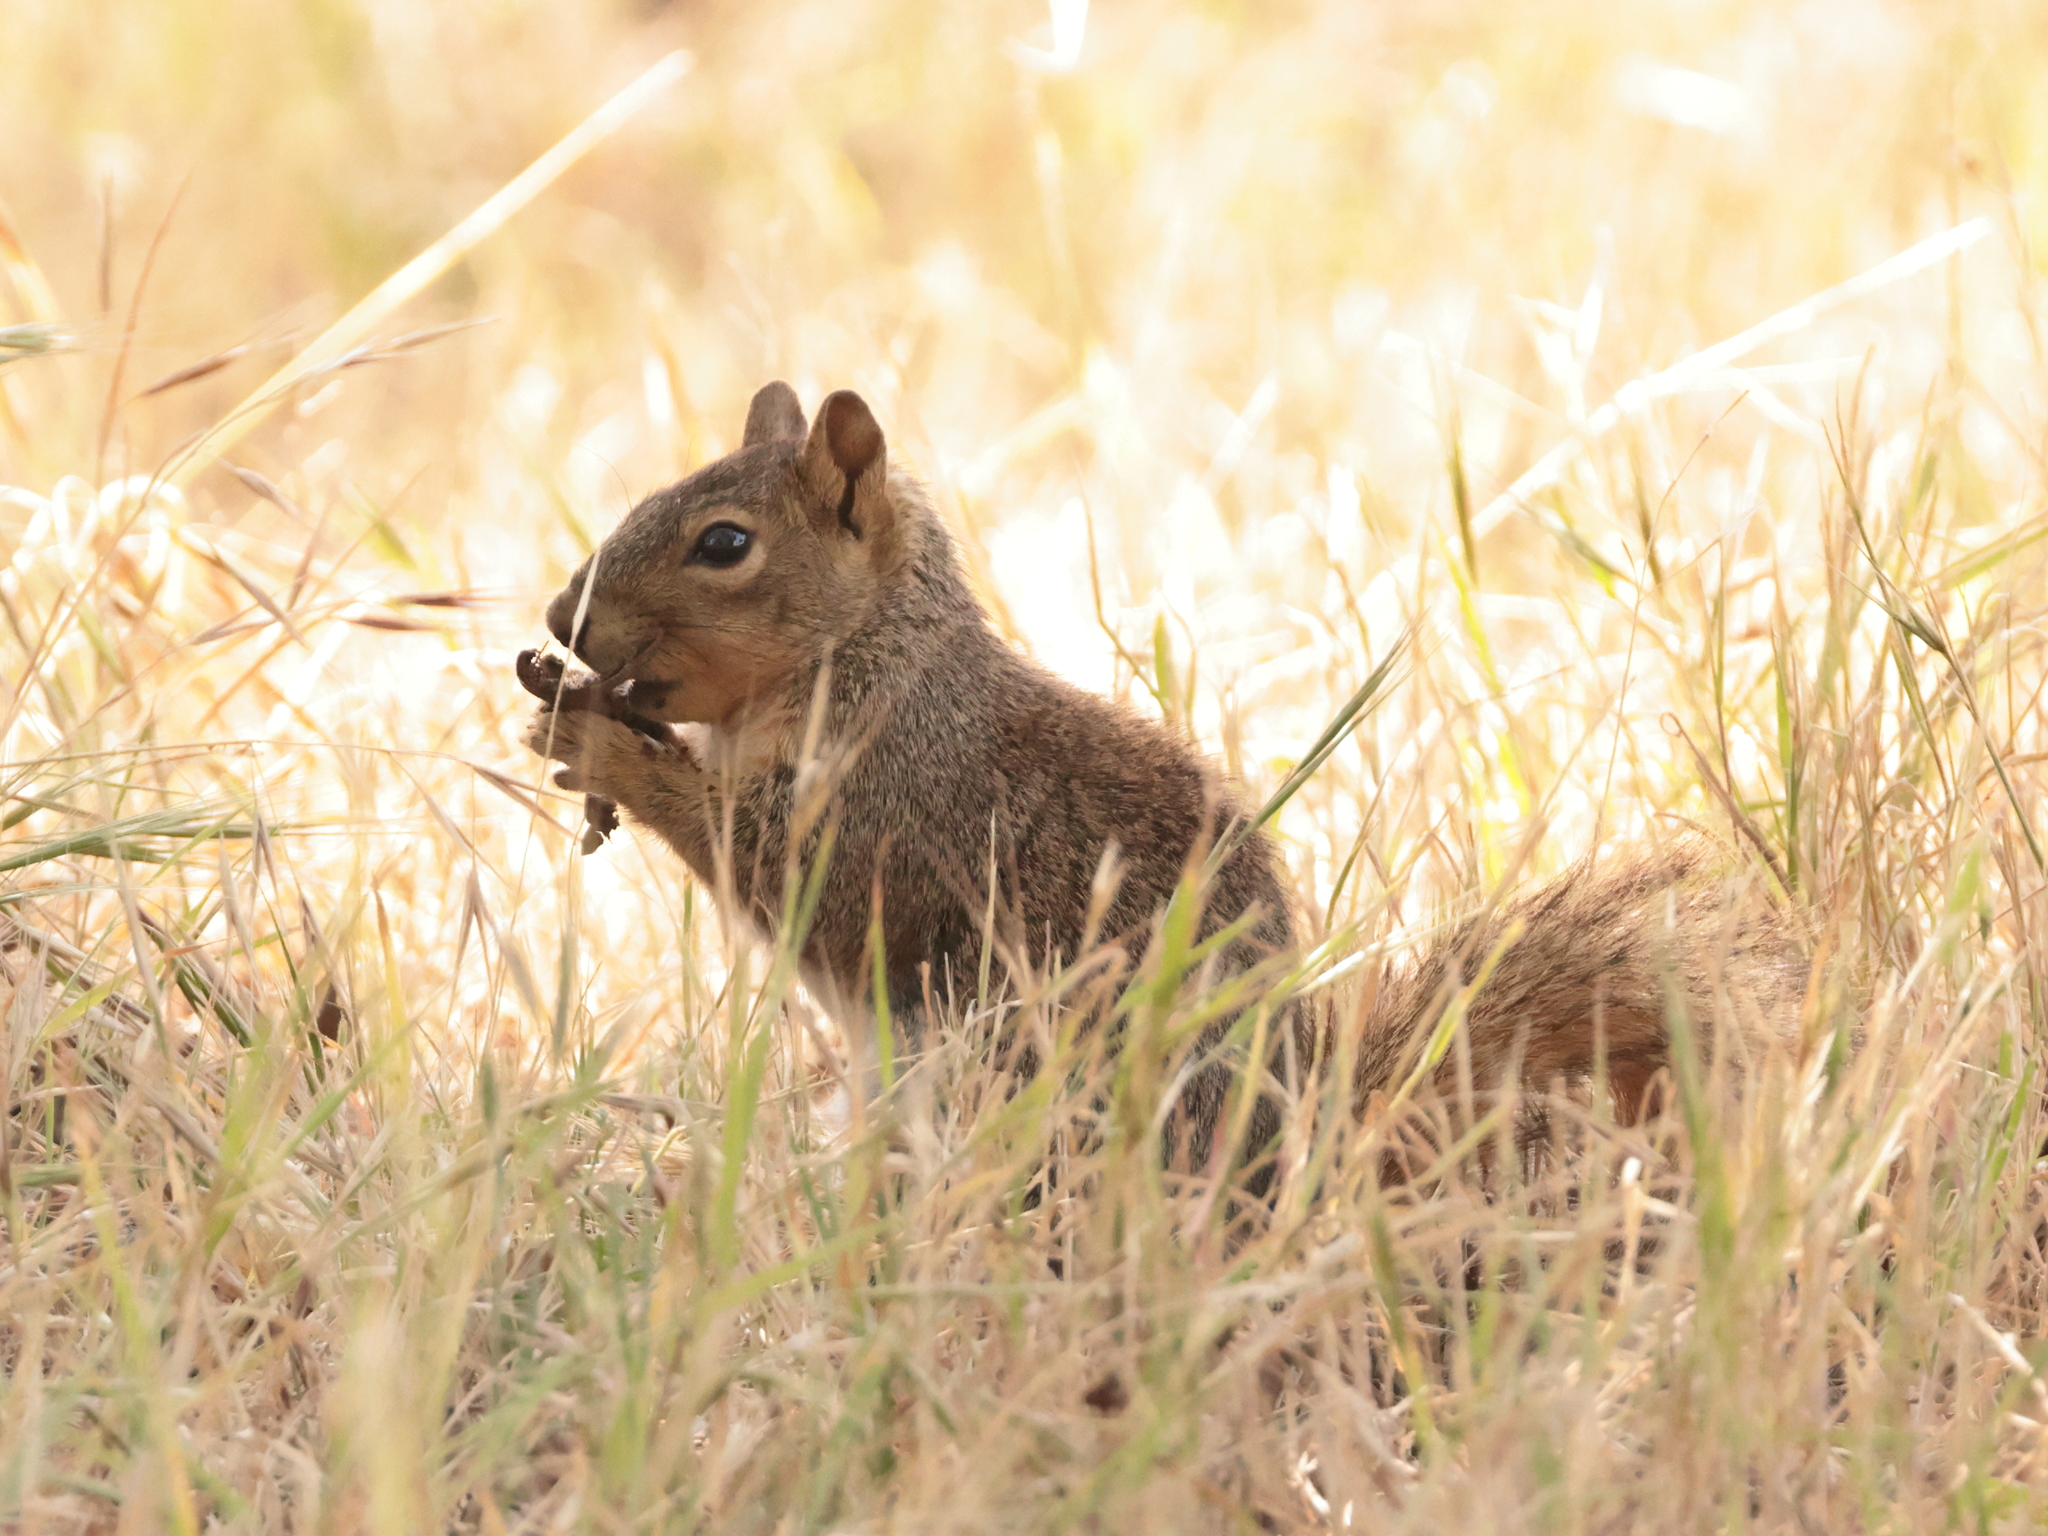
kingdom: Animalia
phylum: Chordata
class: Mammalia
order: Rodentia
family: Sciuridae
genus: Sciurus
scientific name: Sciurus niger
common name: Fox squirrel
